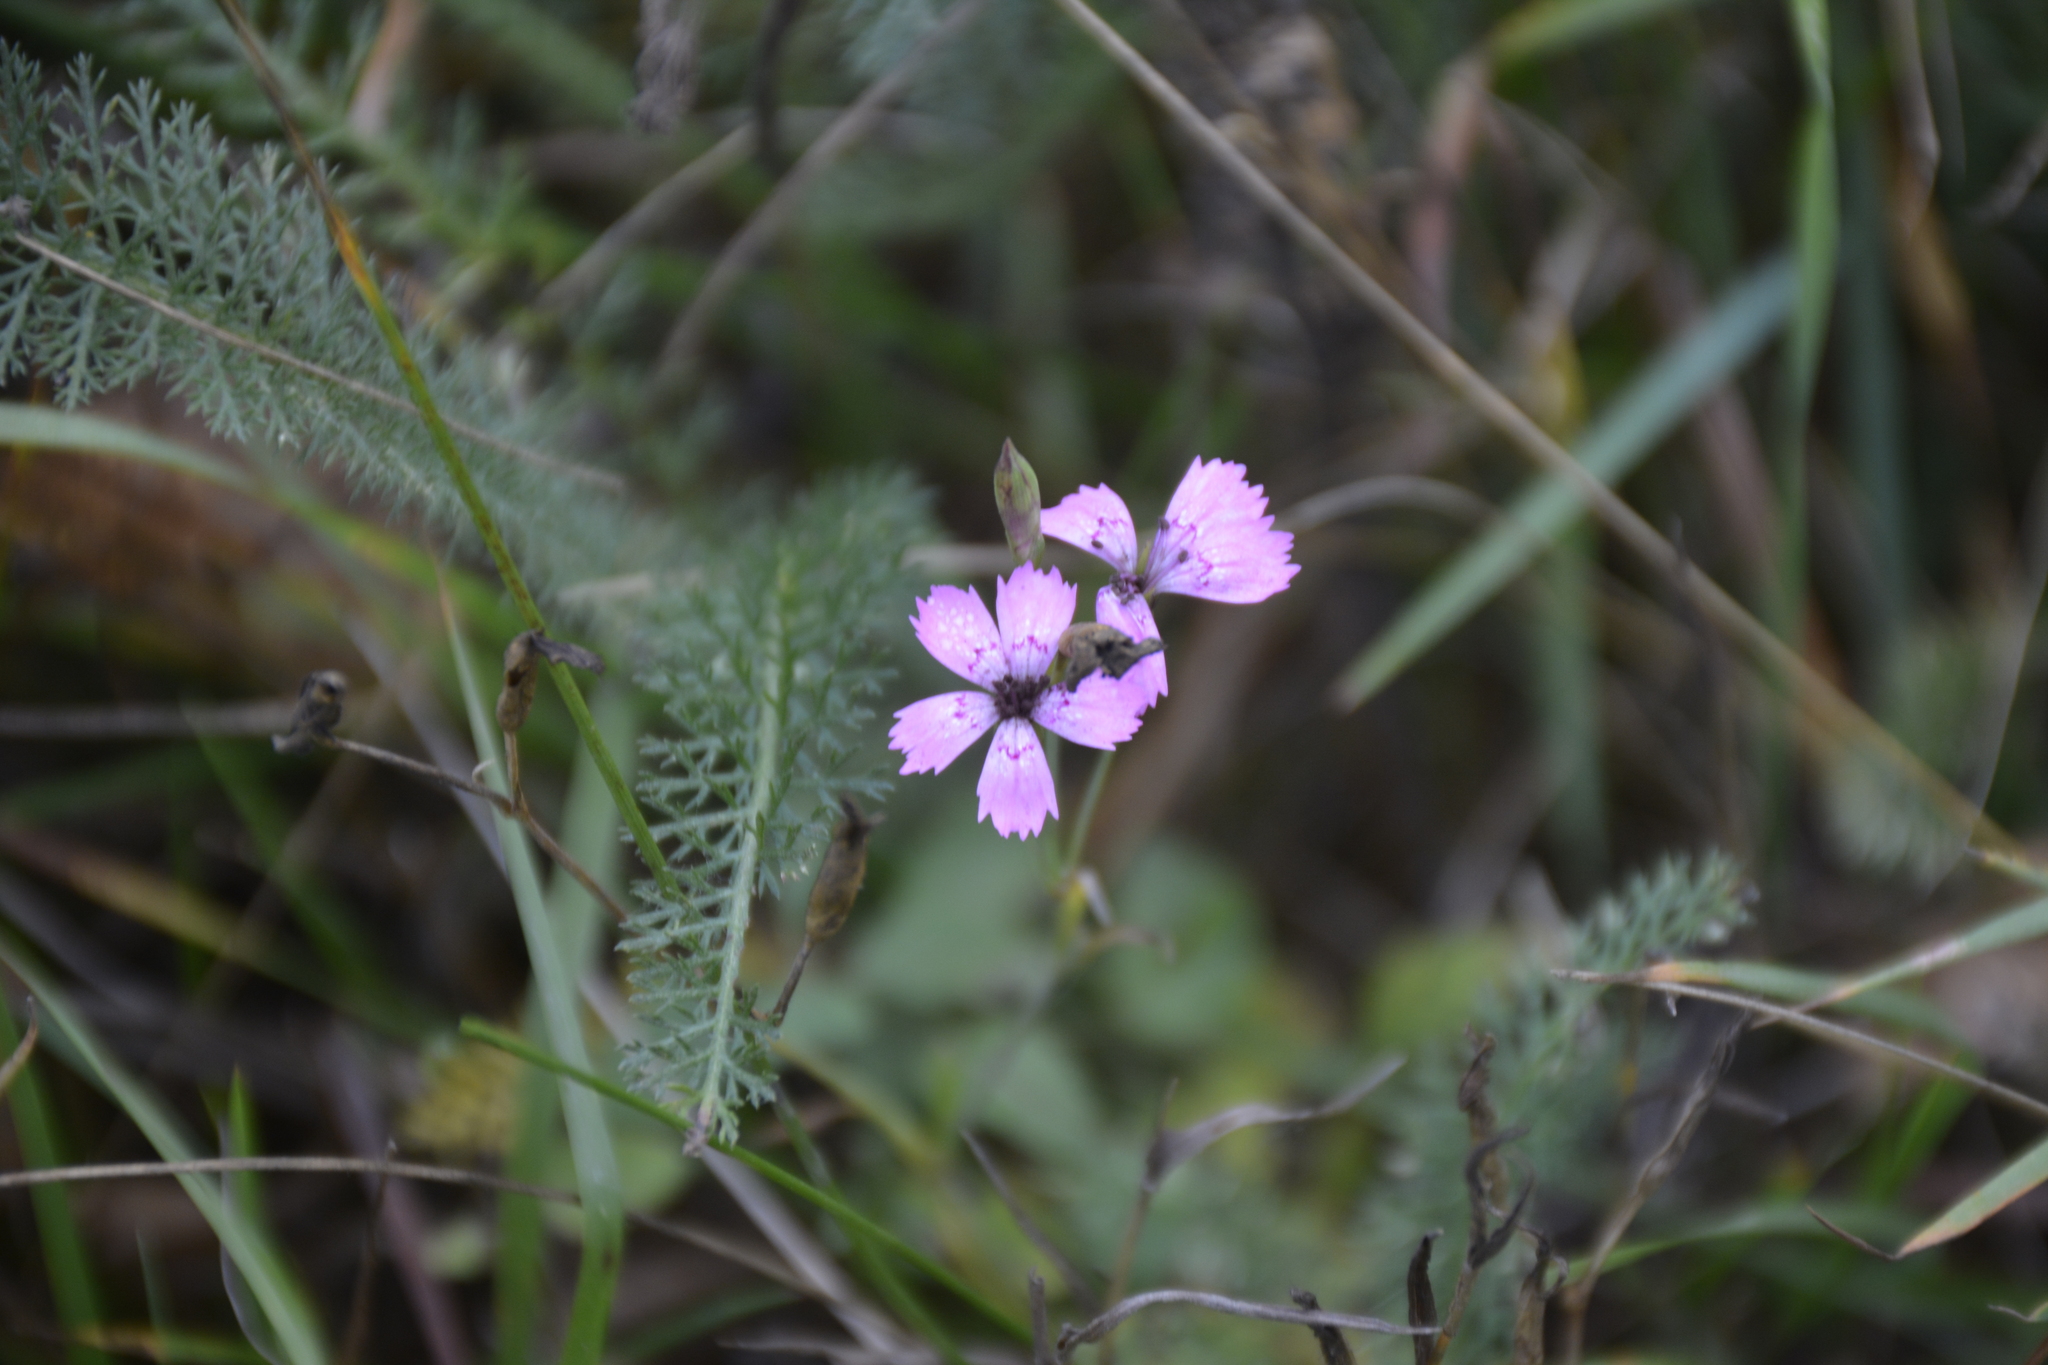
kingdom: Plantae
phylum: Tracheophyta
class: Magnoliopsida
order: Caryophyllales
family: Caryophyllaceae
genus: Dianthus
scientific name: Dianthus deltoides
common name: Maiden pink
